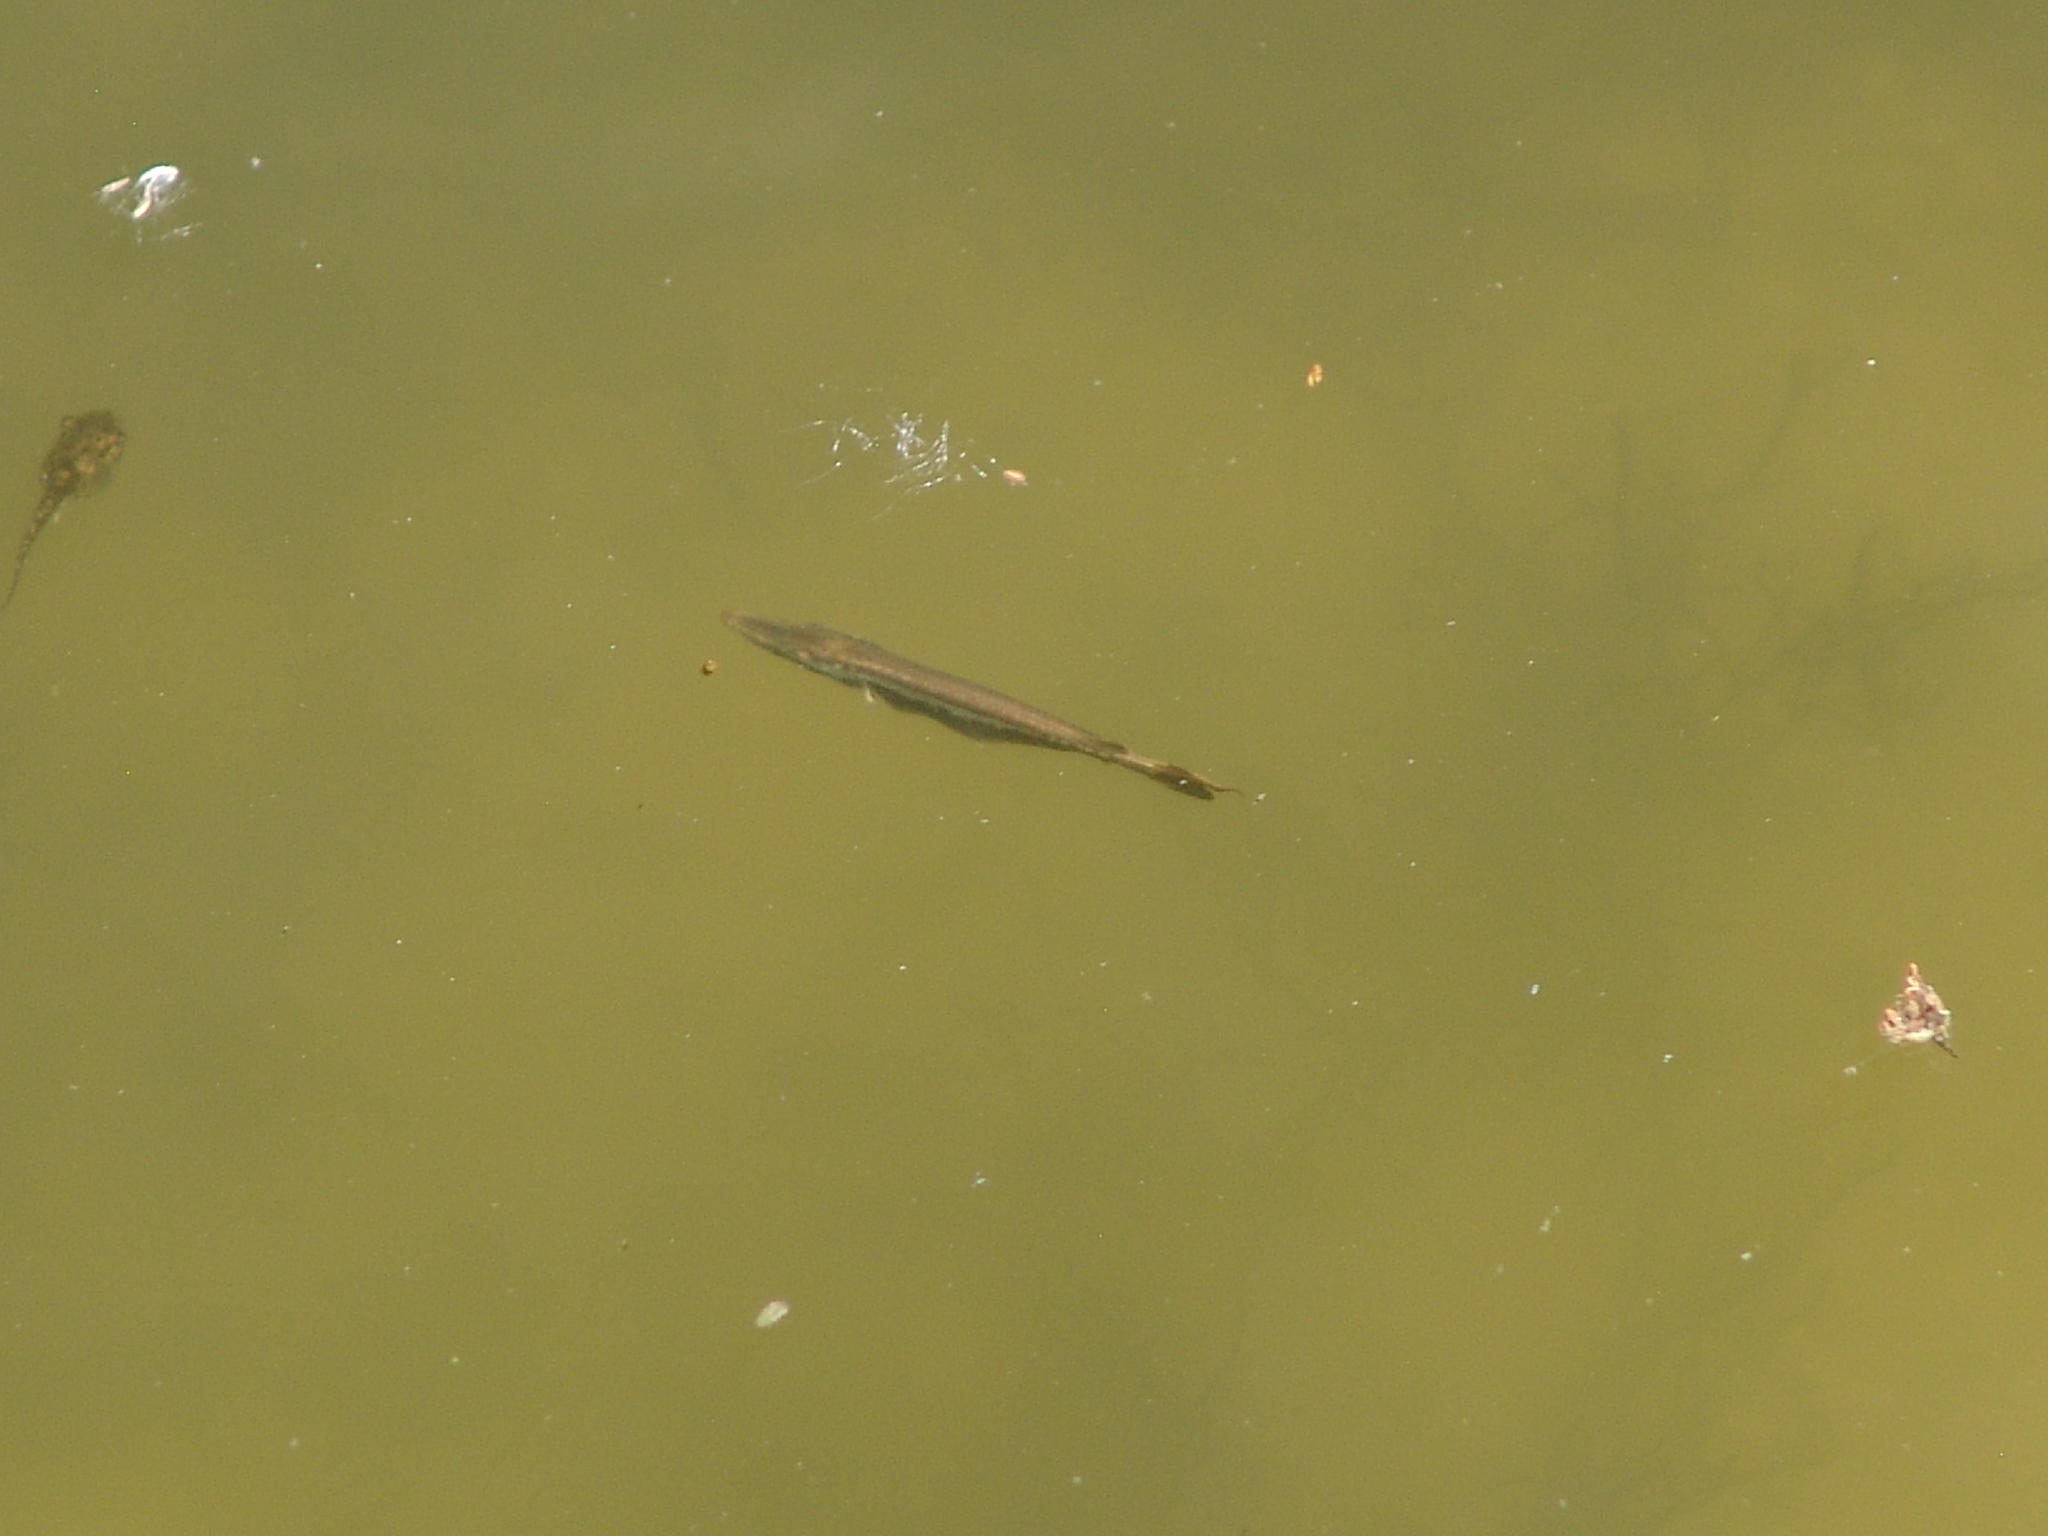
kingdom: Animalia
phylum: Chordata
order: Lepisosteiformes
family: Lepisosteidae
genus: Lepisosteus
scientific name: Lepisosteus osseus
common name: Longnose gar
